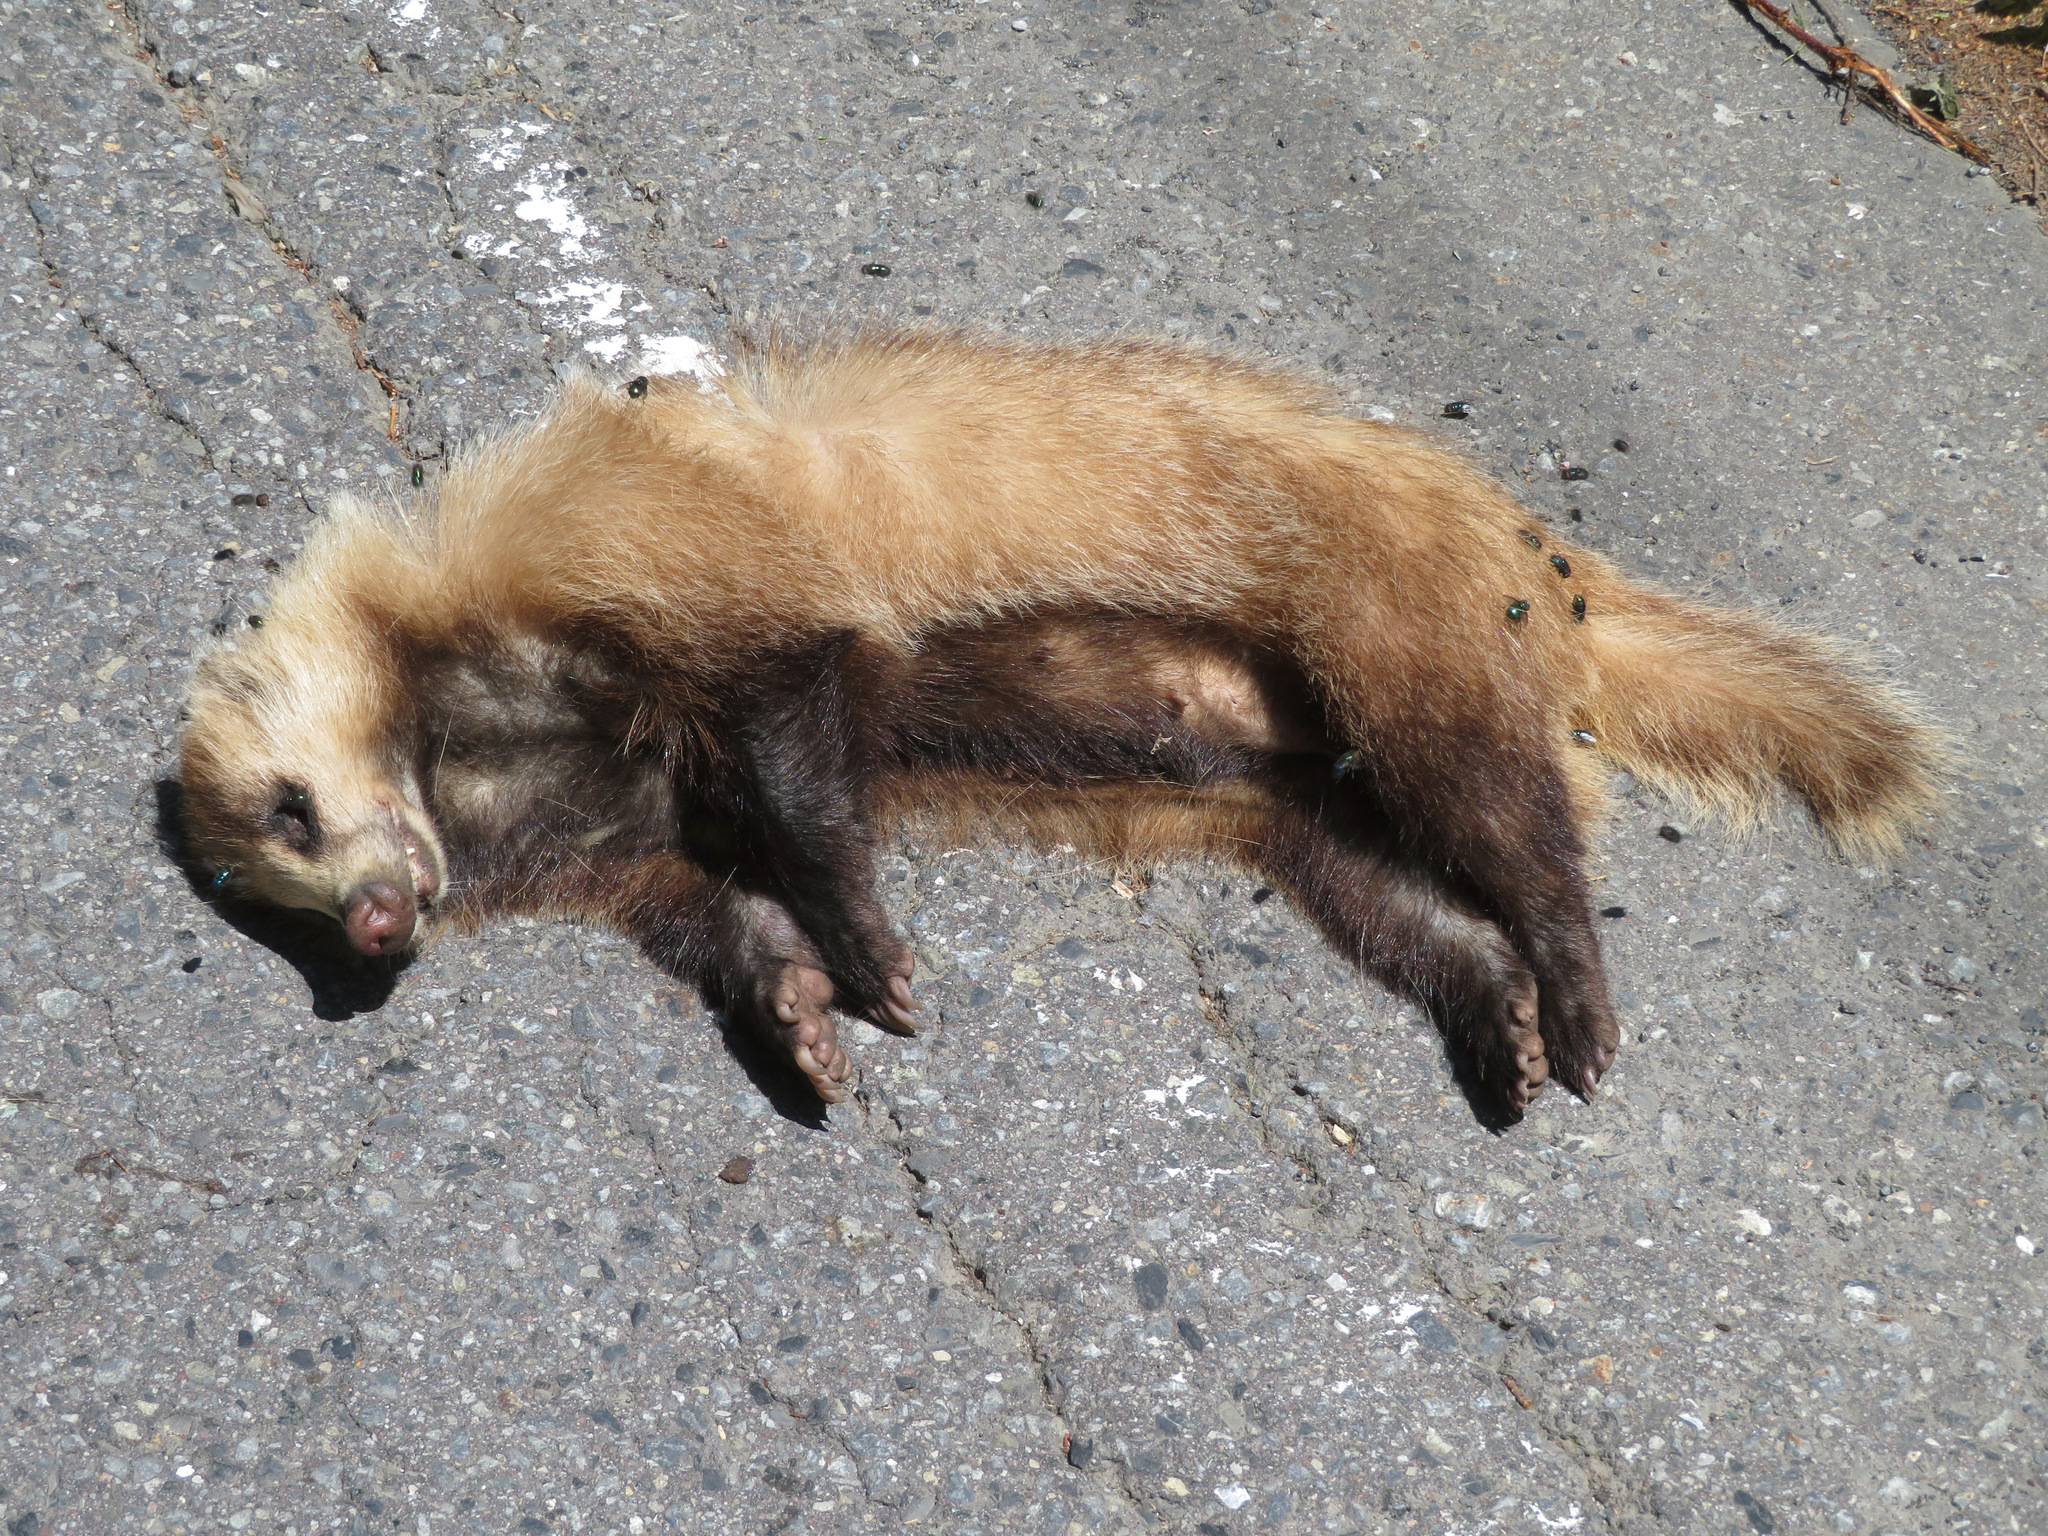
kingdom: Animalia
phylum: Chordata
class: Mammalia
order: Carnivora
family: Mustelidae
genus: Meles
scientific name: Meles anakuma
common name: Japanese badger
